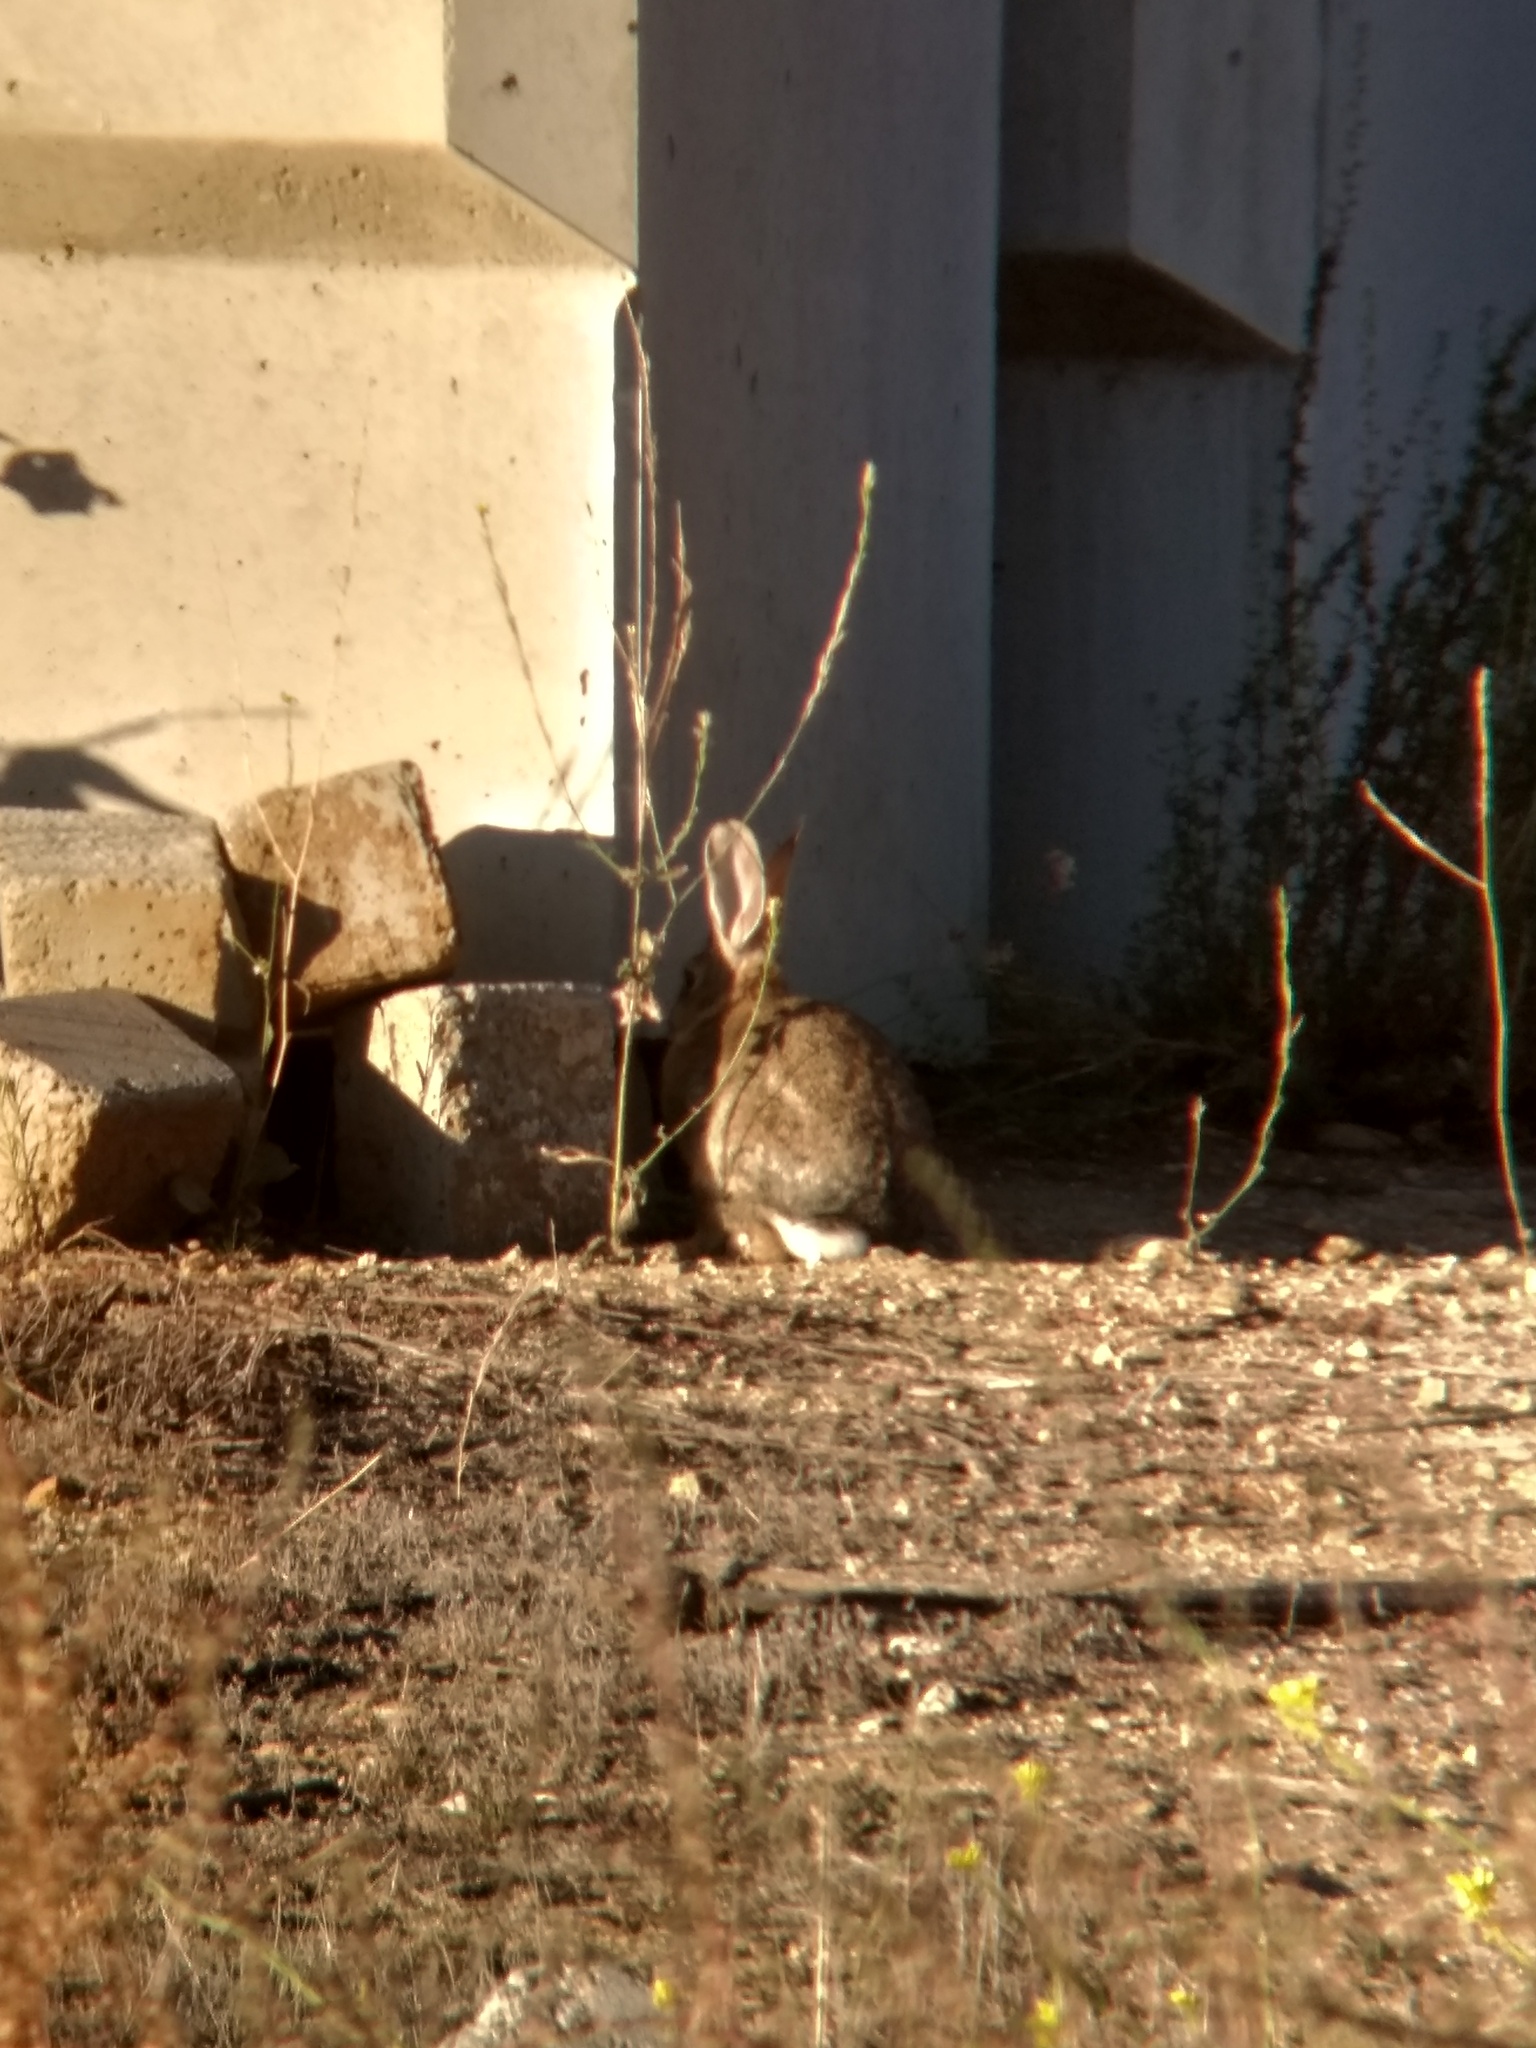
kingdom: Animalia
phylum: Chordata
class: Mammalia
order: Lagomorpha
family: Leporidae
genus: Sylvilagus
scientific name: Sylvilagus audubonii
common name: Desert cottontail
